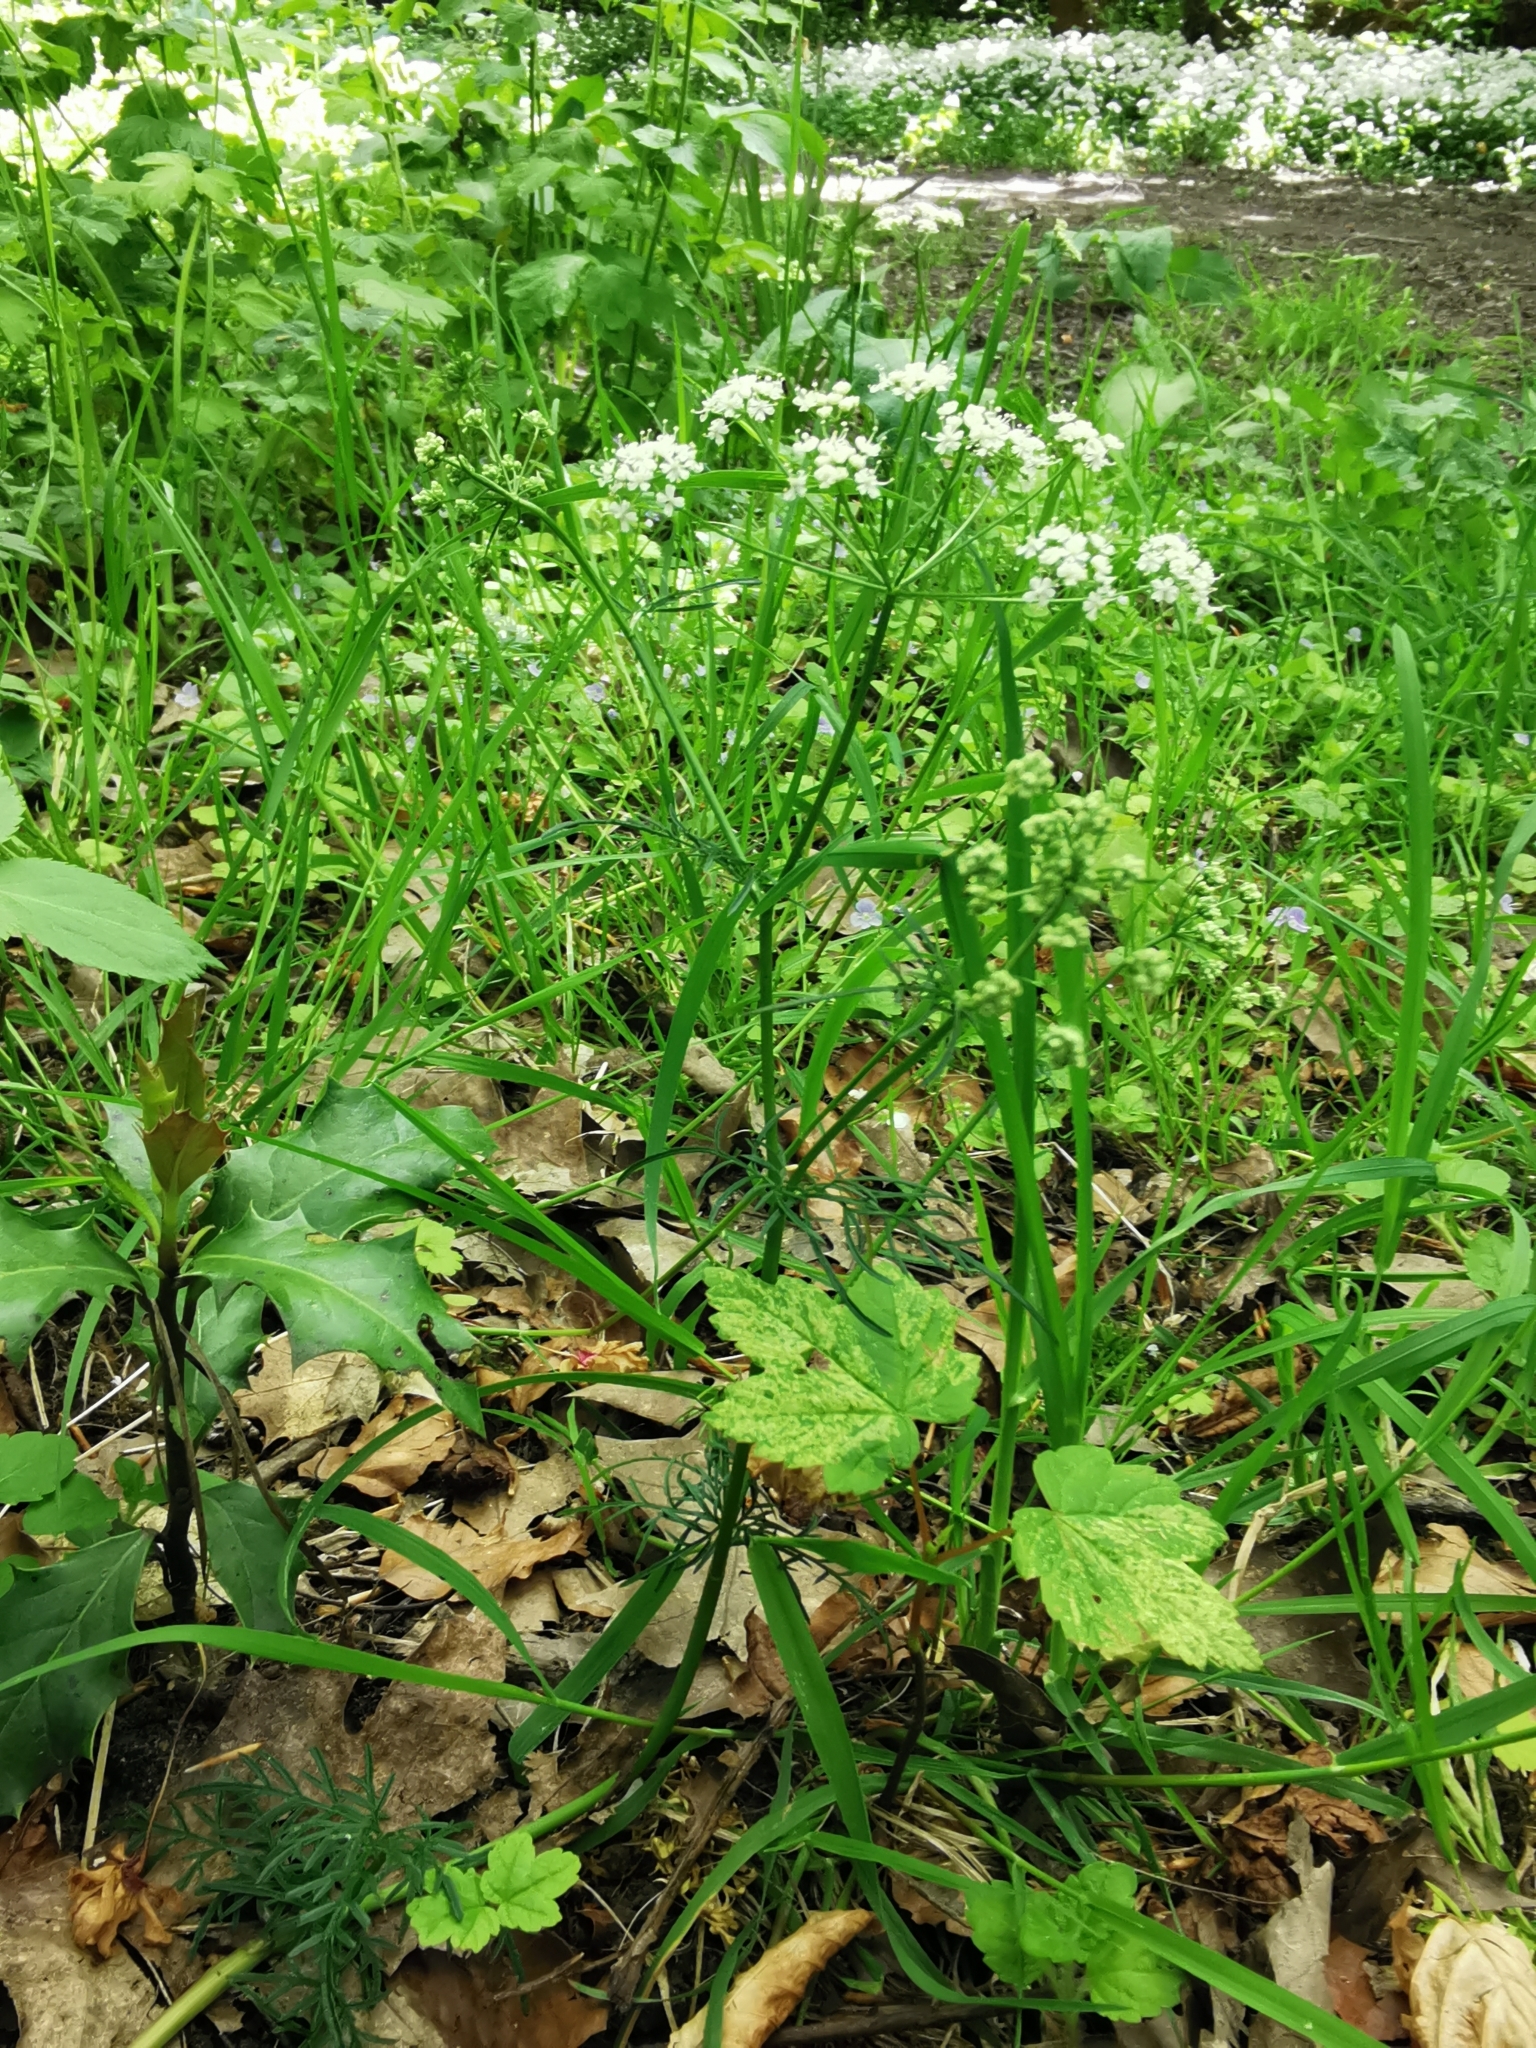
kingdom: Plantae
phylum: Tracheophyta
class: Magnoliopsida
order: Apiales
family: Apiaceae
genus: Conopodium
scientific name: Conopodium majus
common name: Pignut
